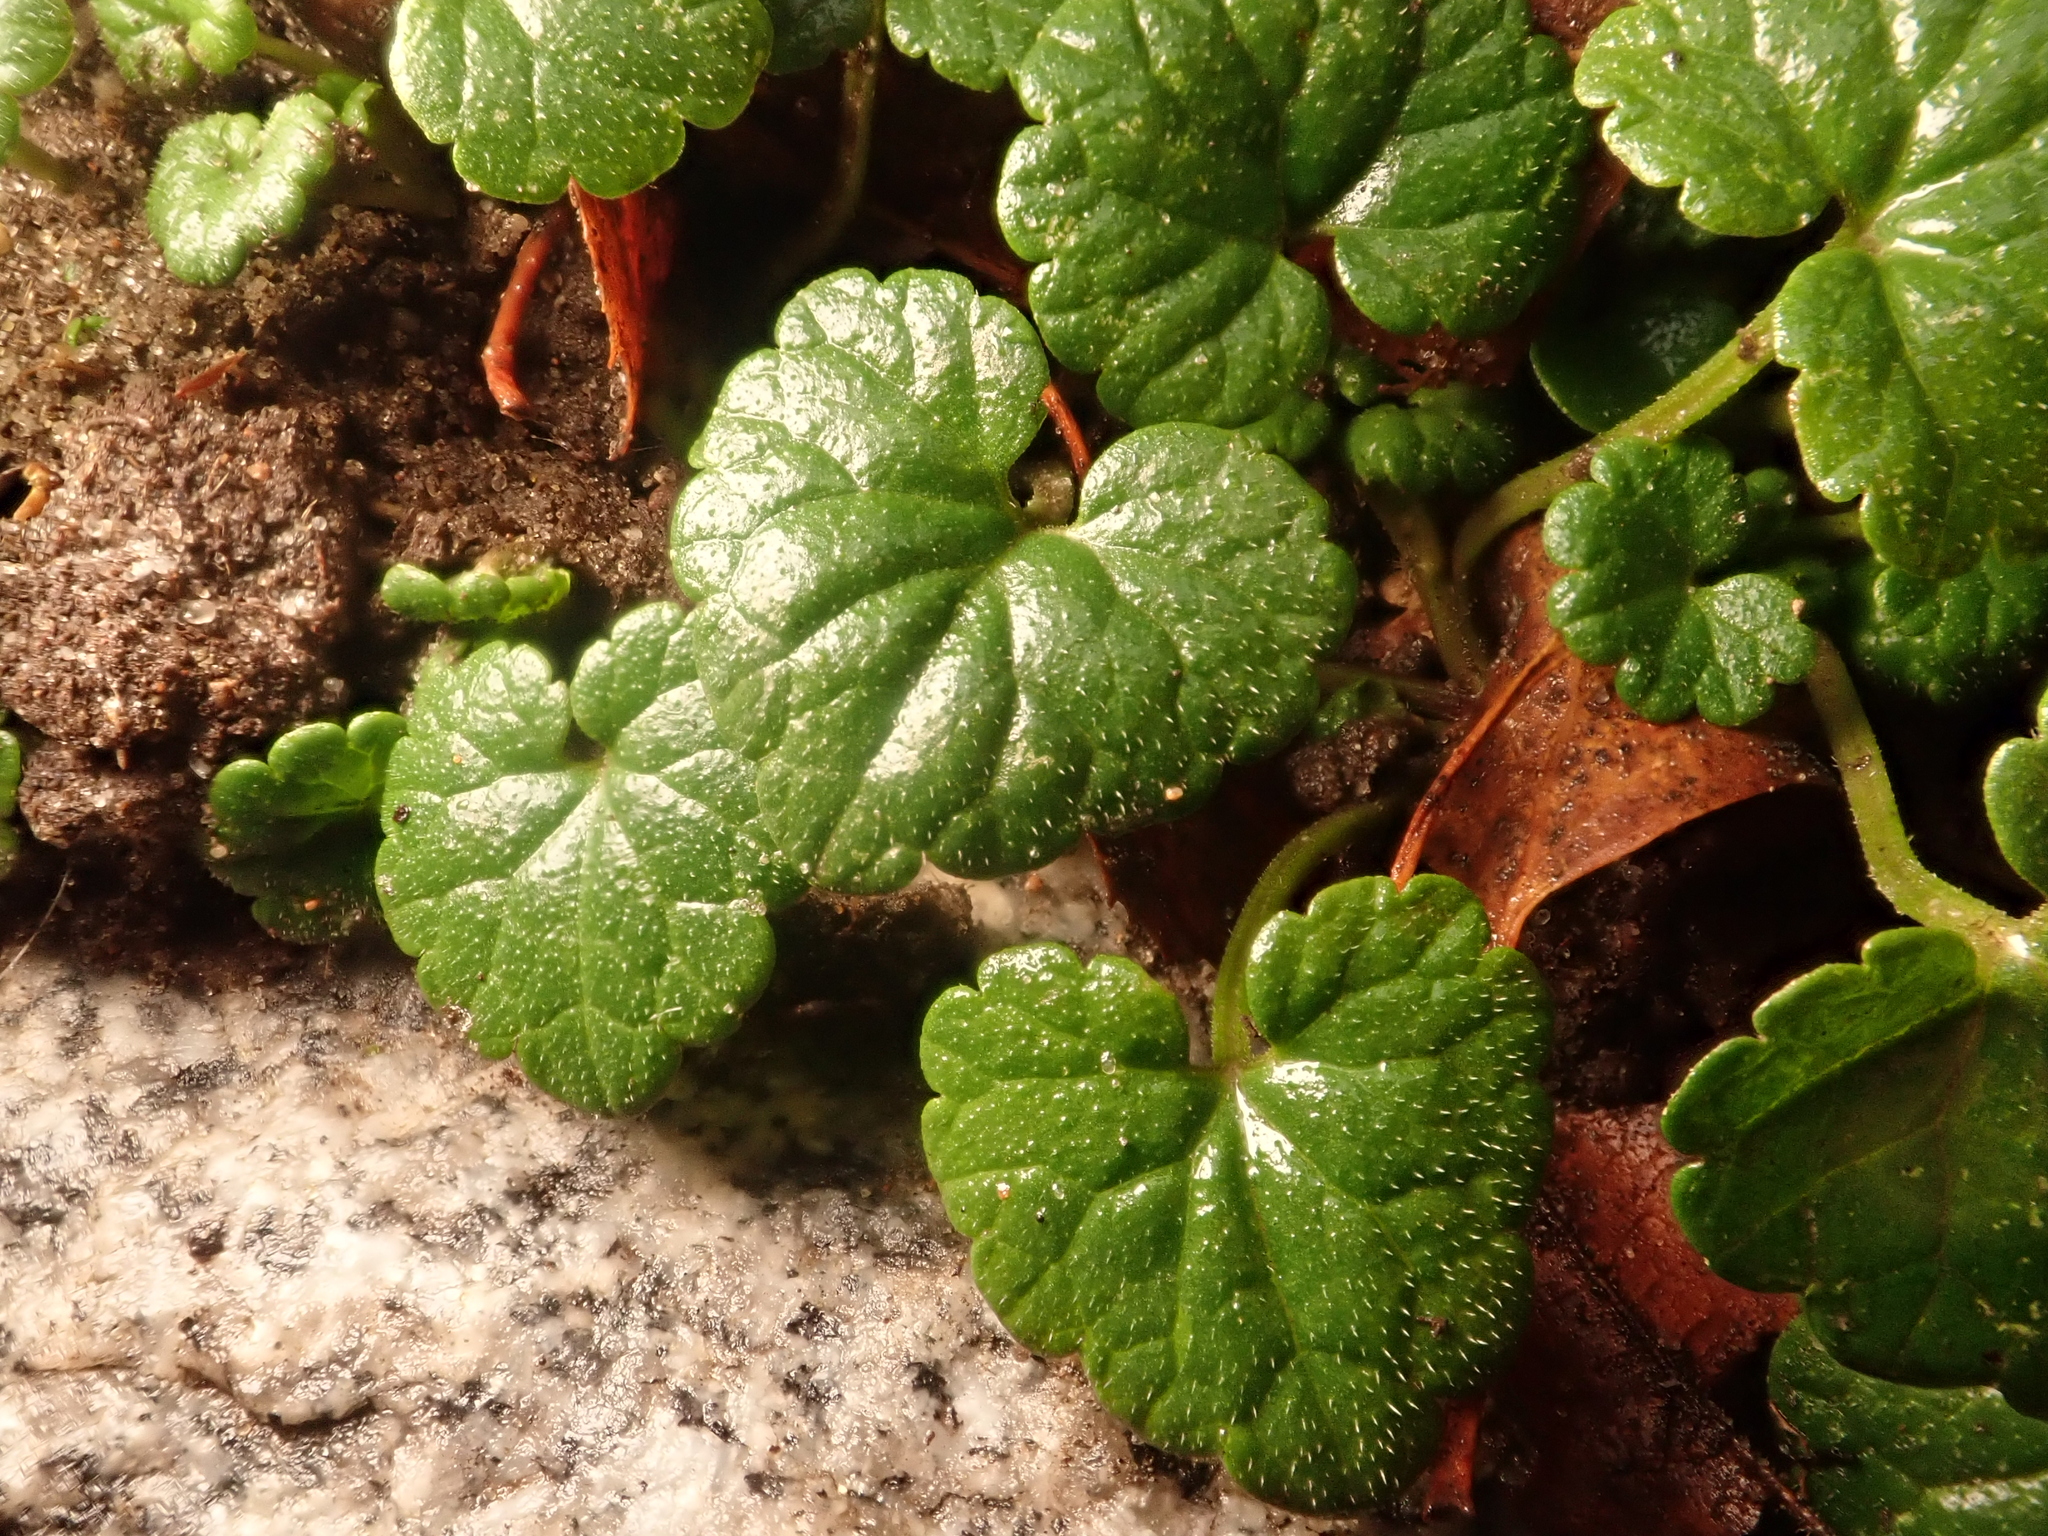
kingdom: Plantae
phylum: Tracheophyta
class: Magnoliopsida
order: Lamiales
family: Lamiaceae
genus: Glechoma
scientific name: Glechoma hederacea
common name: Ground ivy
